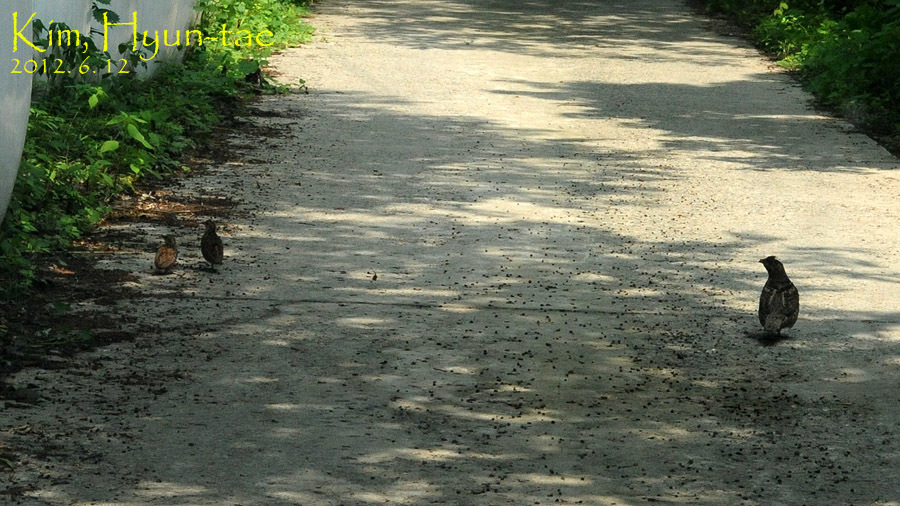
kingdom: Animalia
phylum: Chordata
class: Aves
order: Galliformes
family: Phasianidae
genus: Tetrastes
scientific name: Tetrastes bonasia
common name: Hazel grouse
